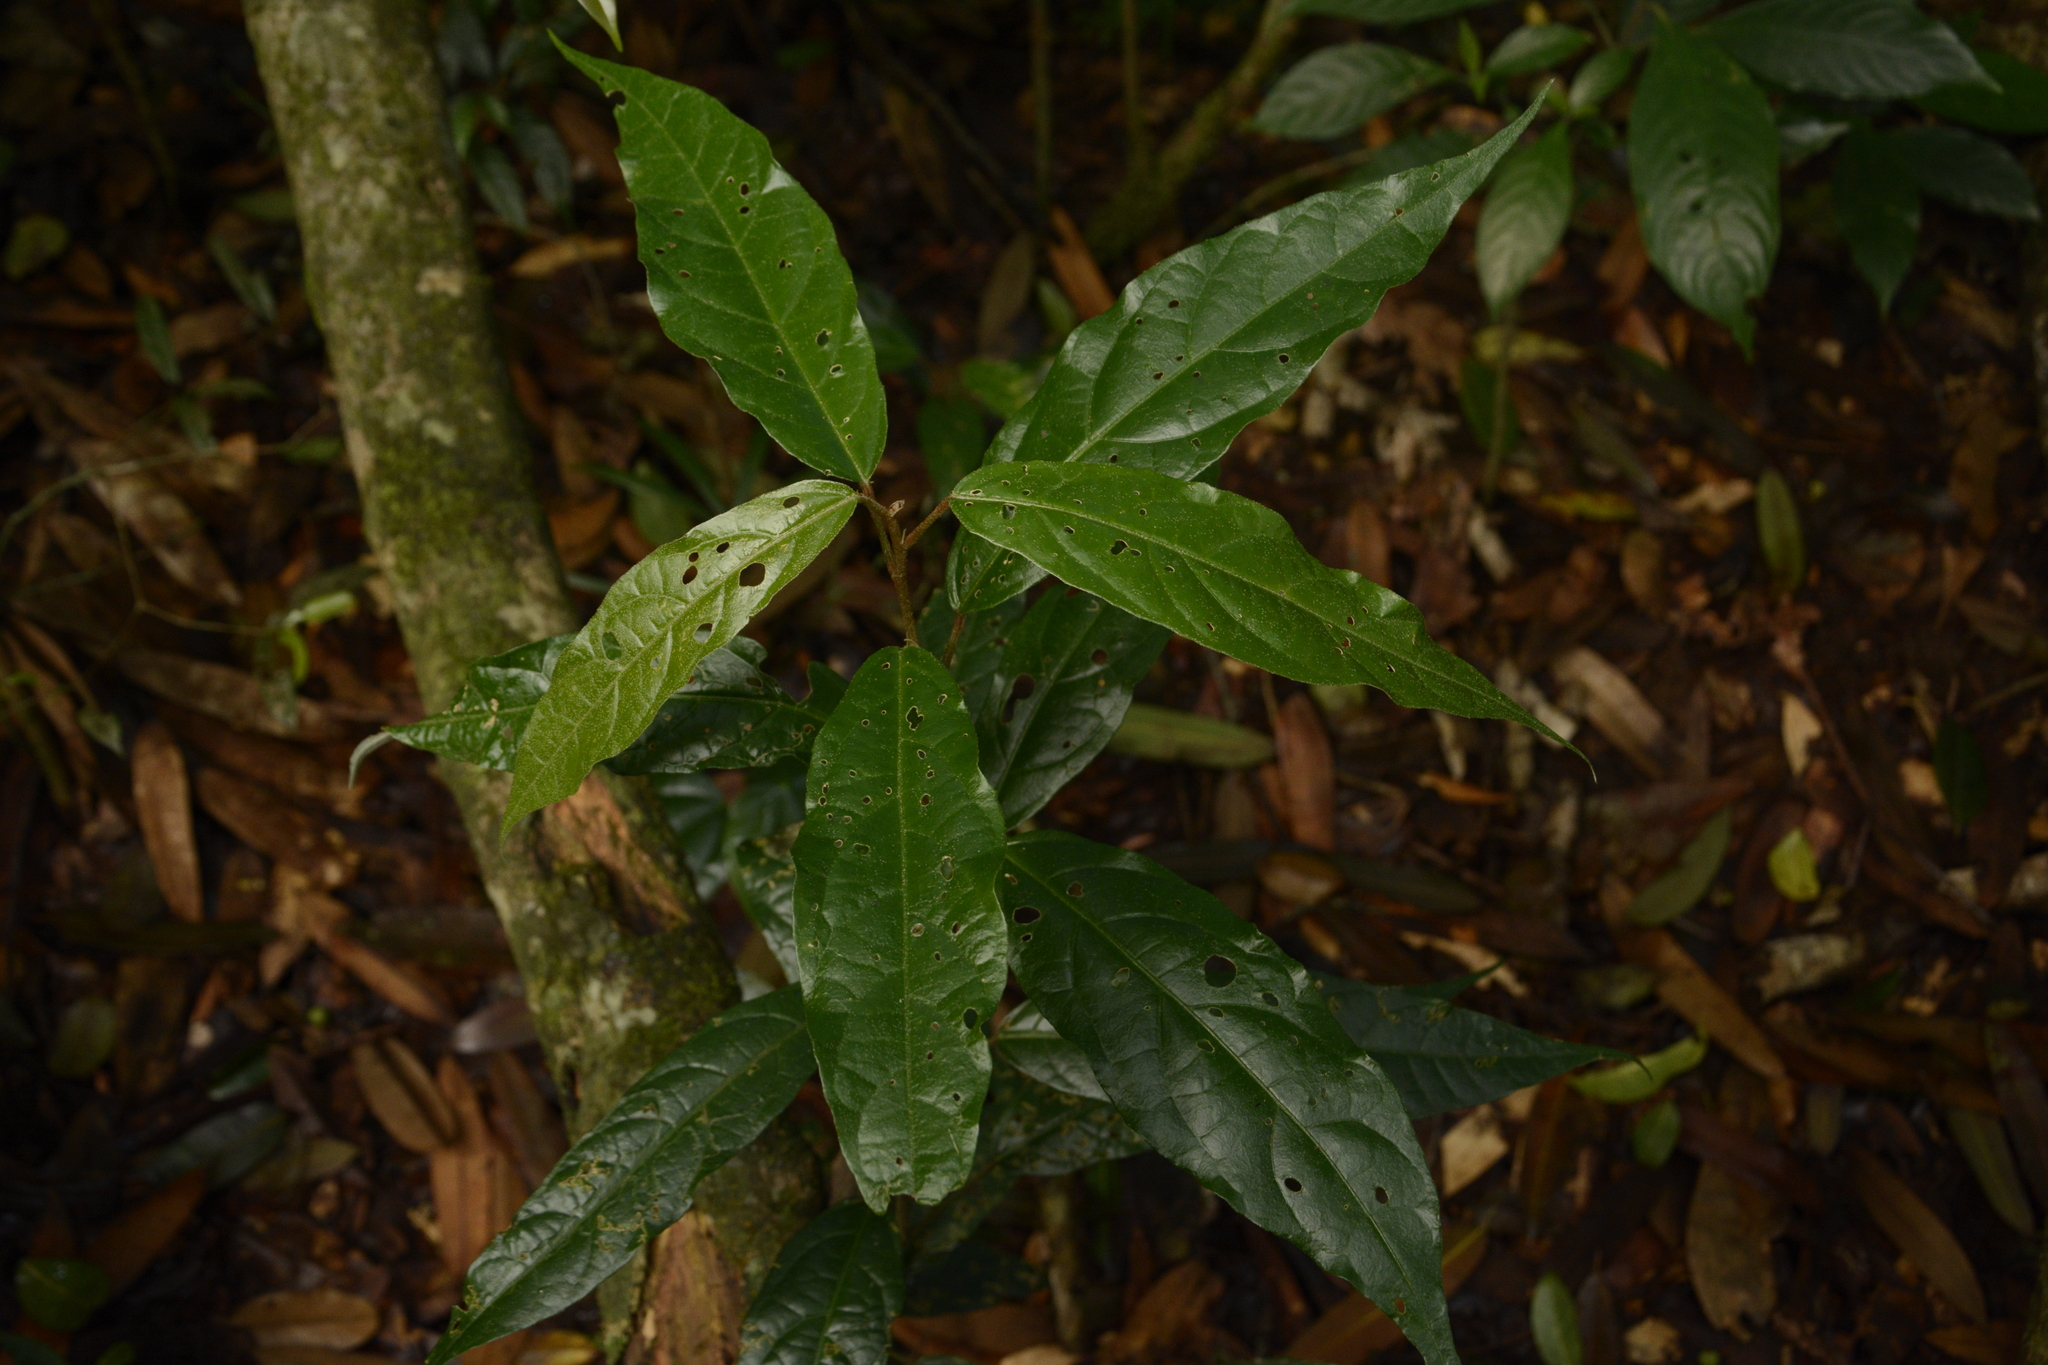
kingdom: Plantae
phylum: Tracheophyta
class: Magnoliopsida
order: Malpighiales
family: Euphorbiaceae
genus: Croton
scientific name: Croton zeylanicus
